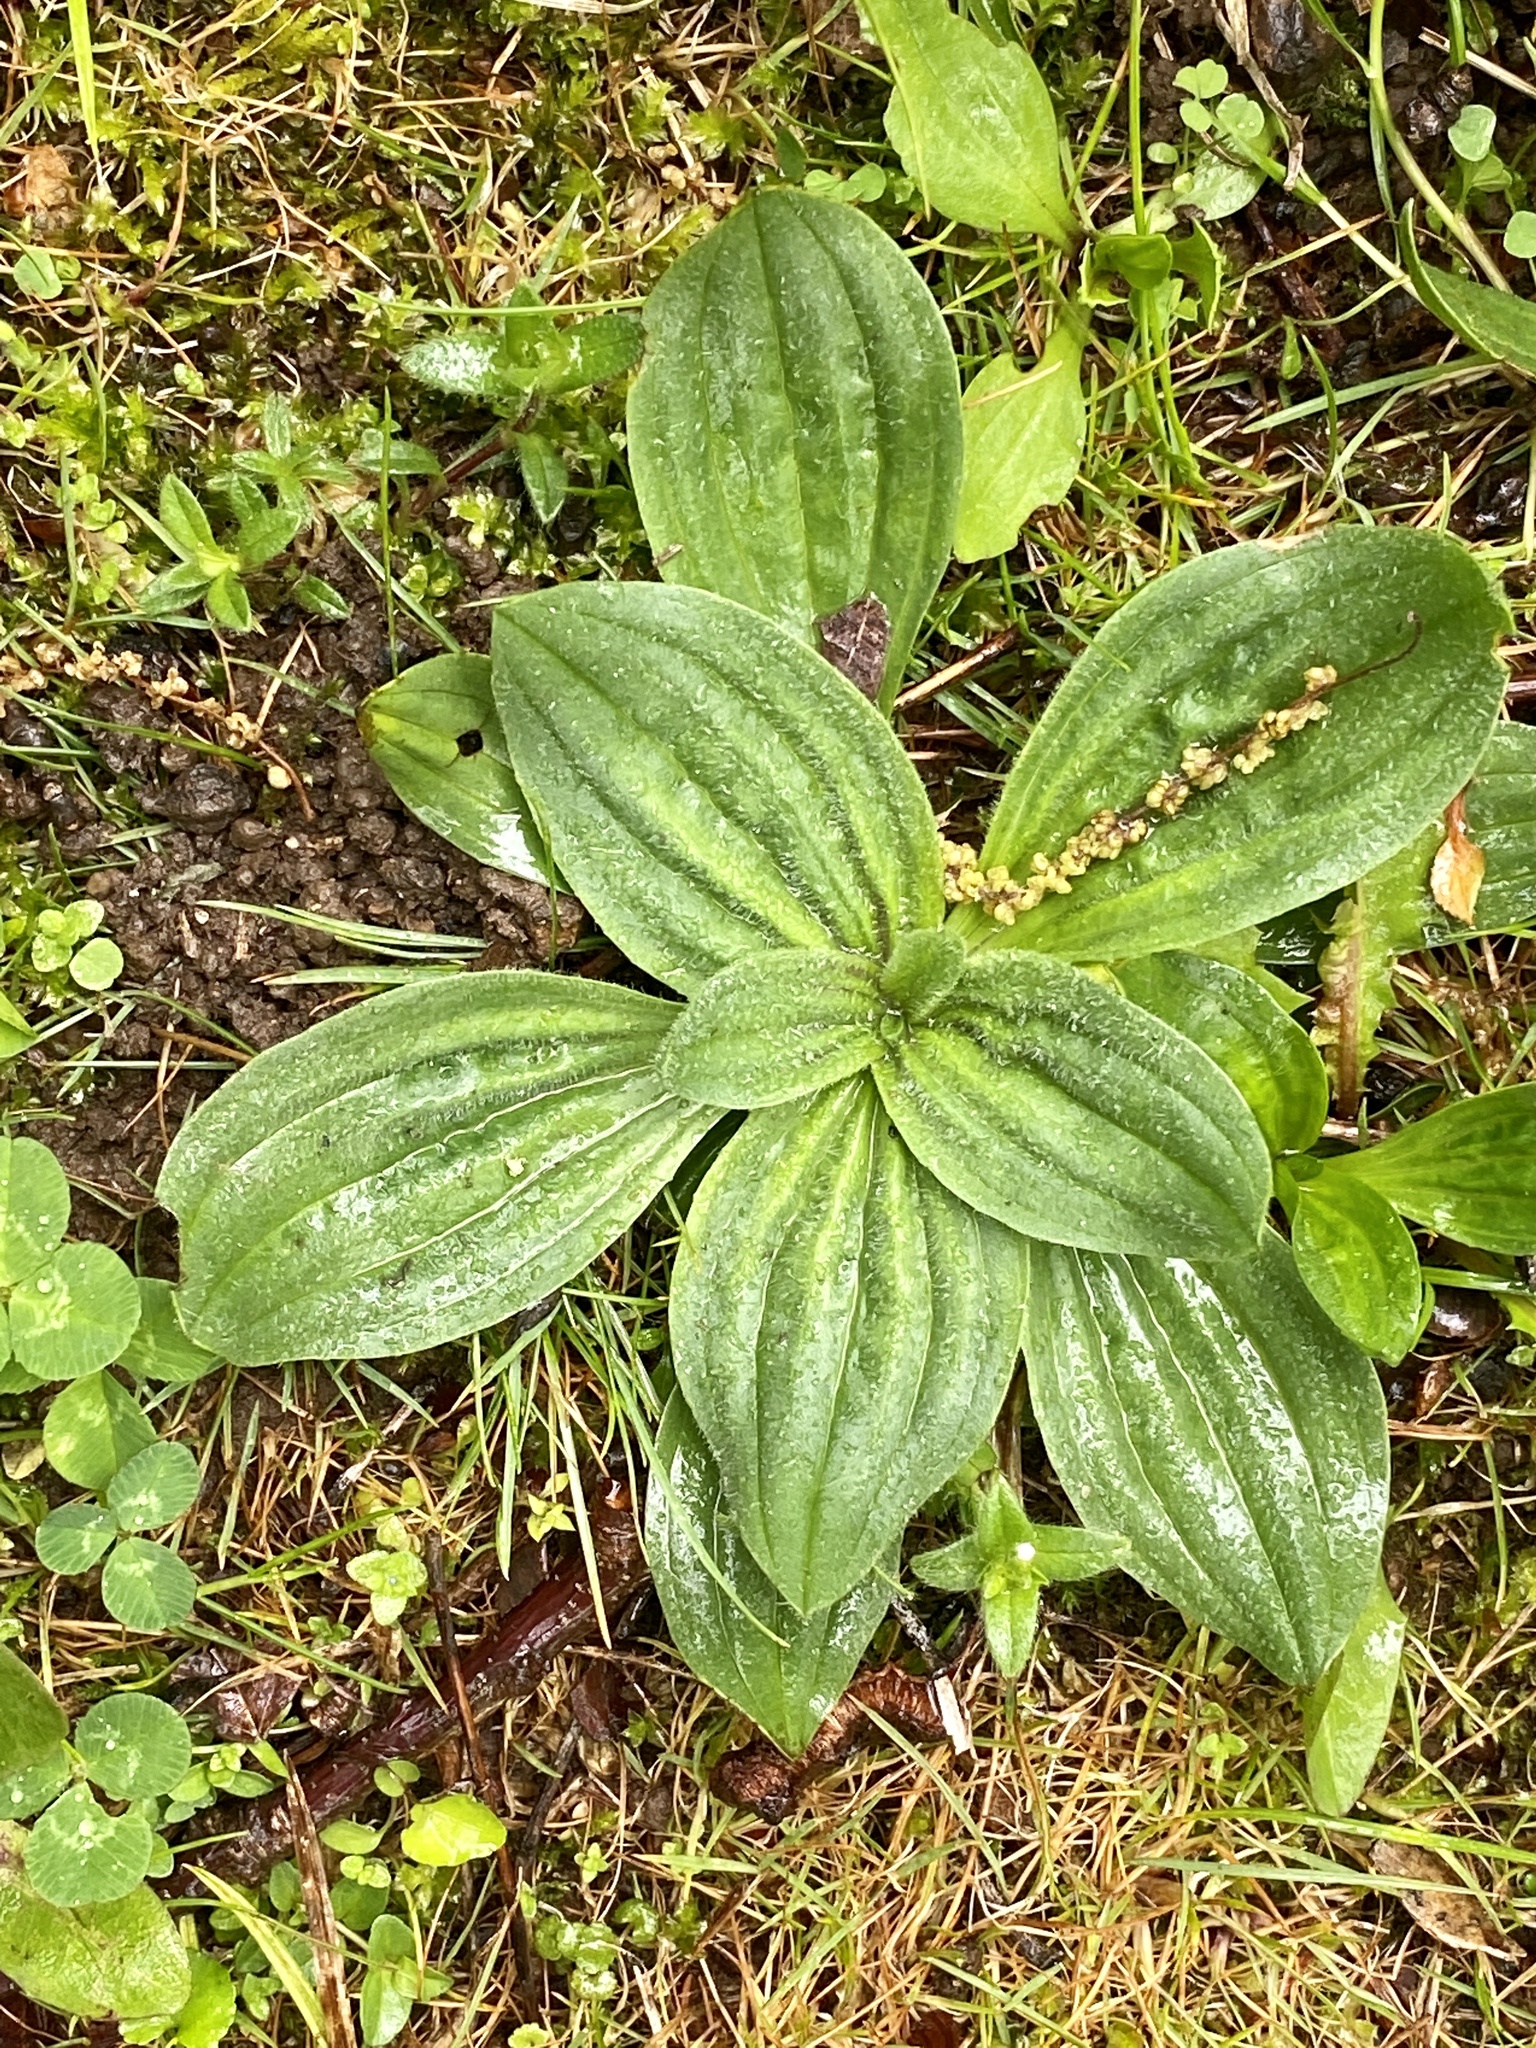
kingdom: Plantae
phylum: Tracheophyta
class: Magnoliopsida
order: Lamiales
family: Plantaginaceae
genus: Plantago
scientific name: Plantago lanceolata
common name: Ribwort plantain
